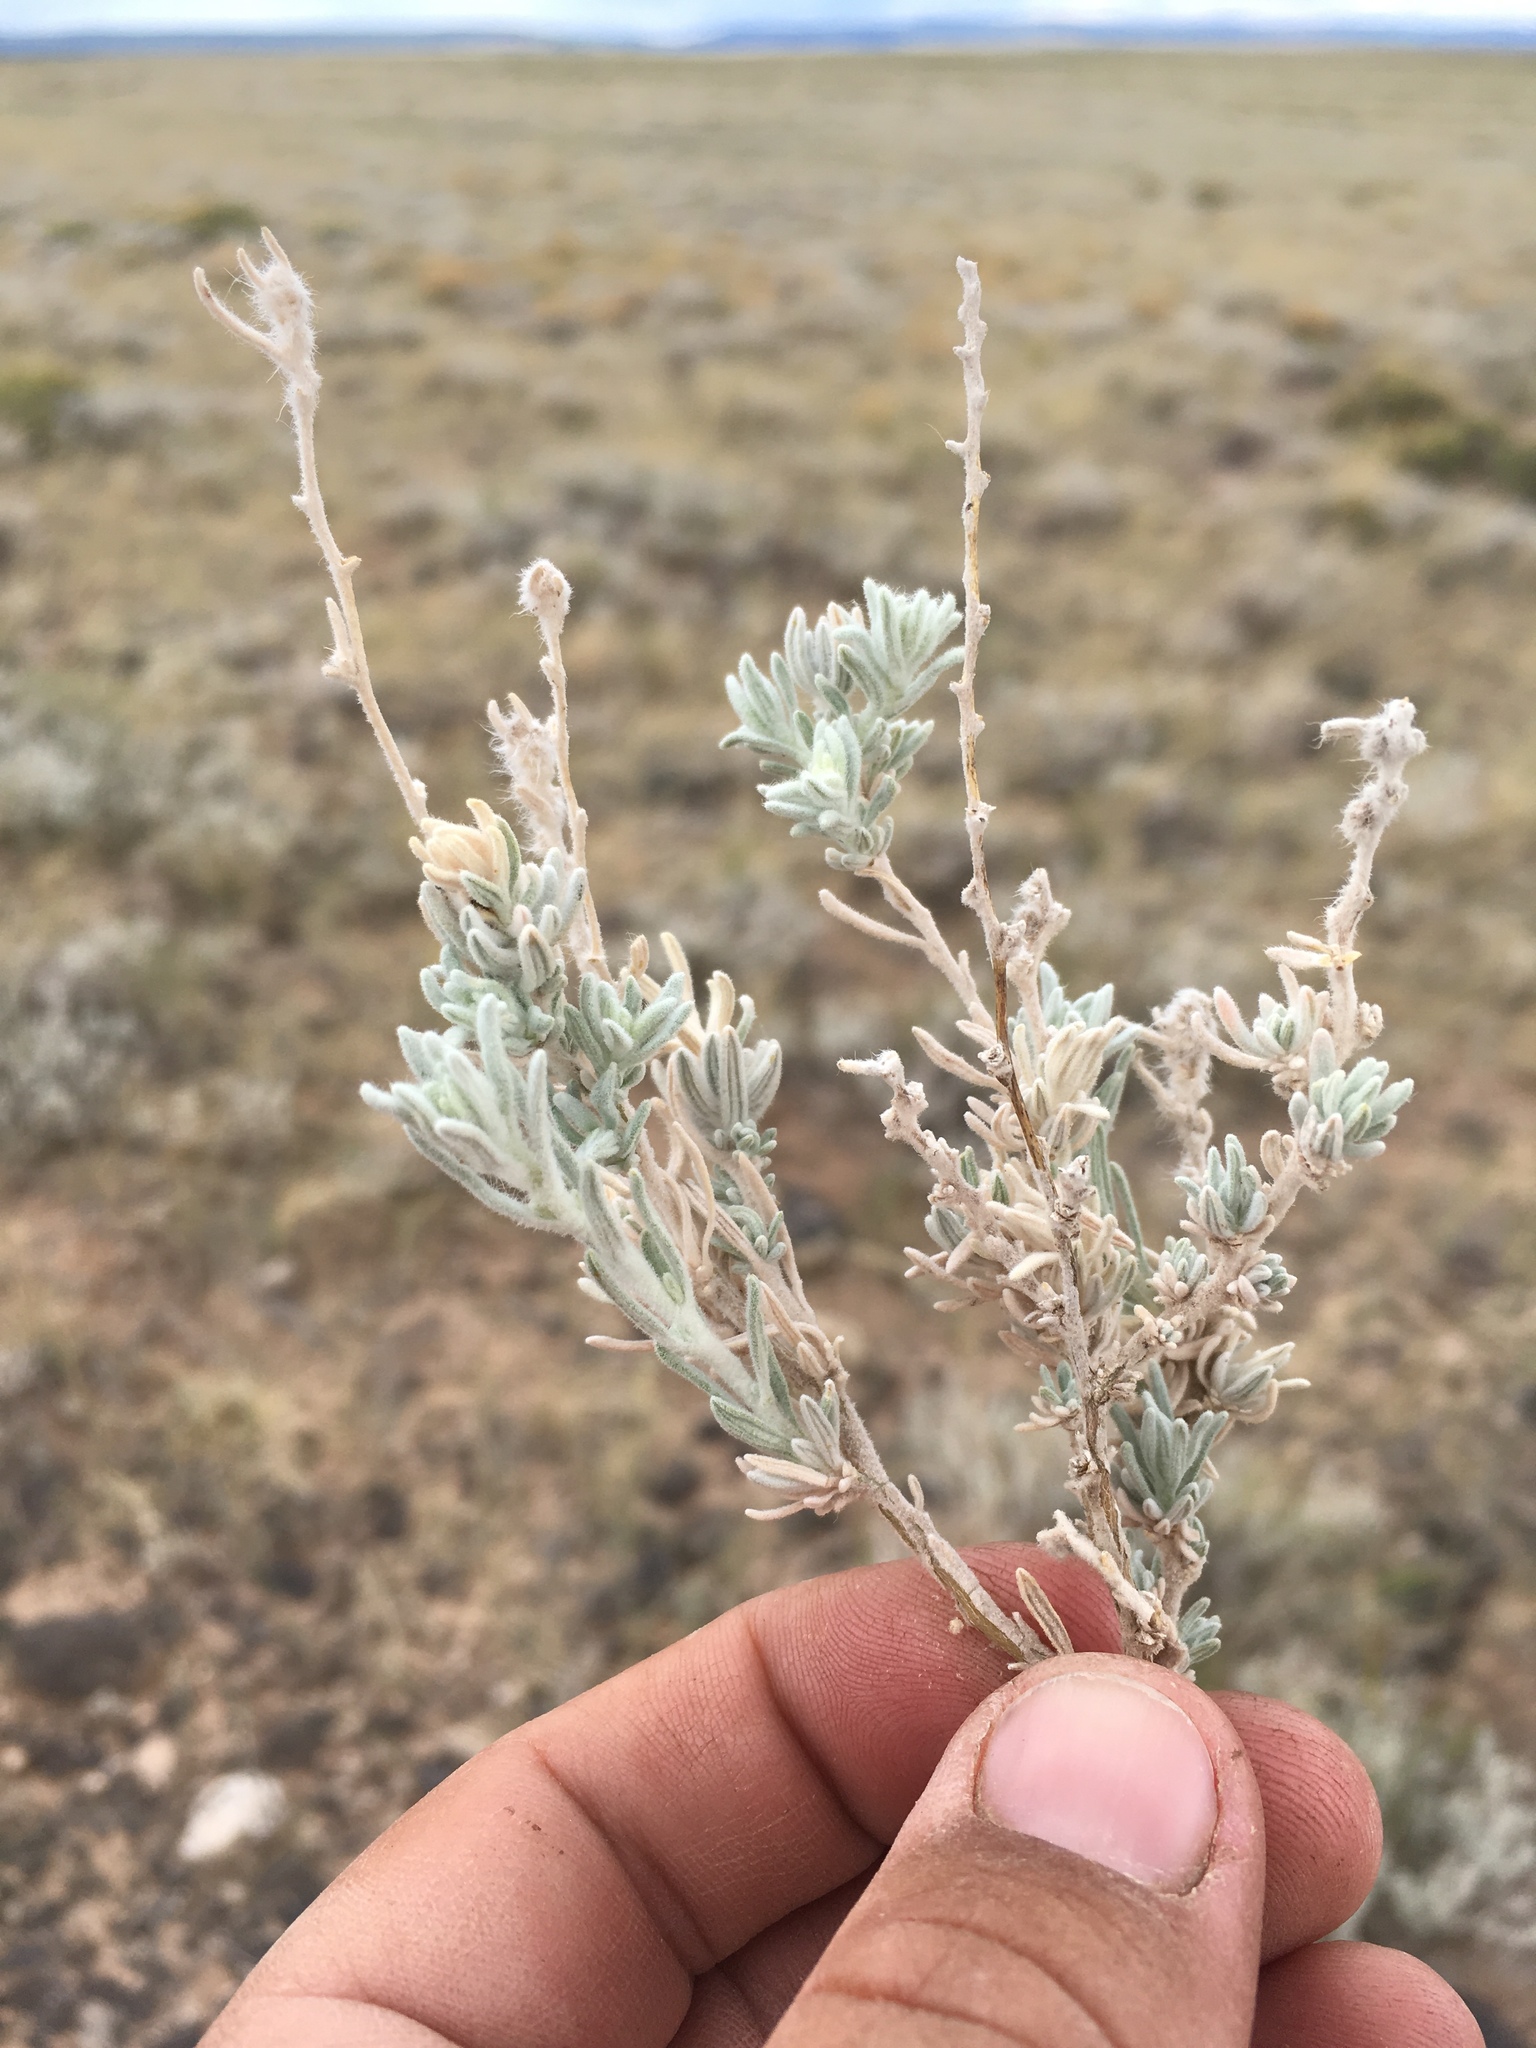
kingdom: Plantae
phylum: Tracheophyta
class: Magnoliopsida
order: Caryophyllales
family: Amaranthaceae
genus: Krascheninnikovia
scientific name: Krascheninnikovia lanata
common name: Winterfat
